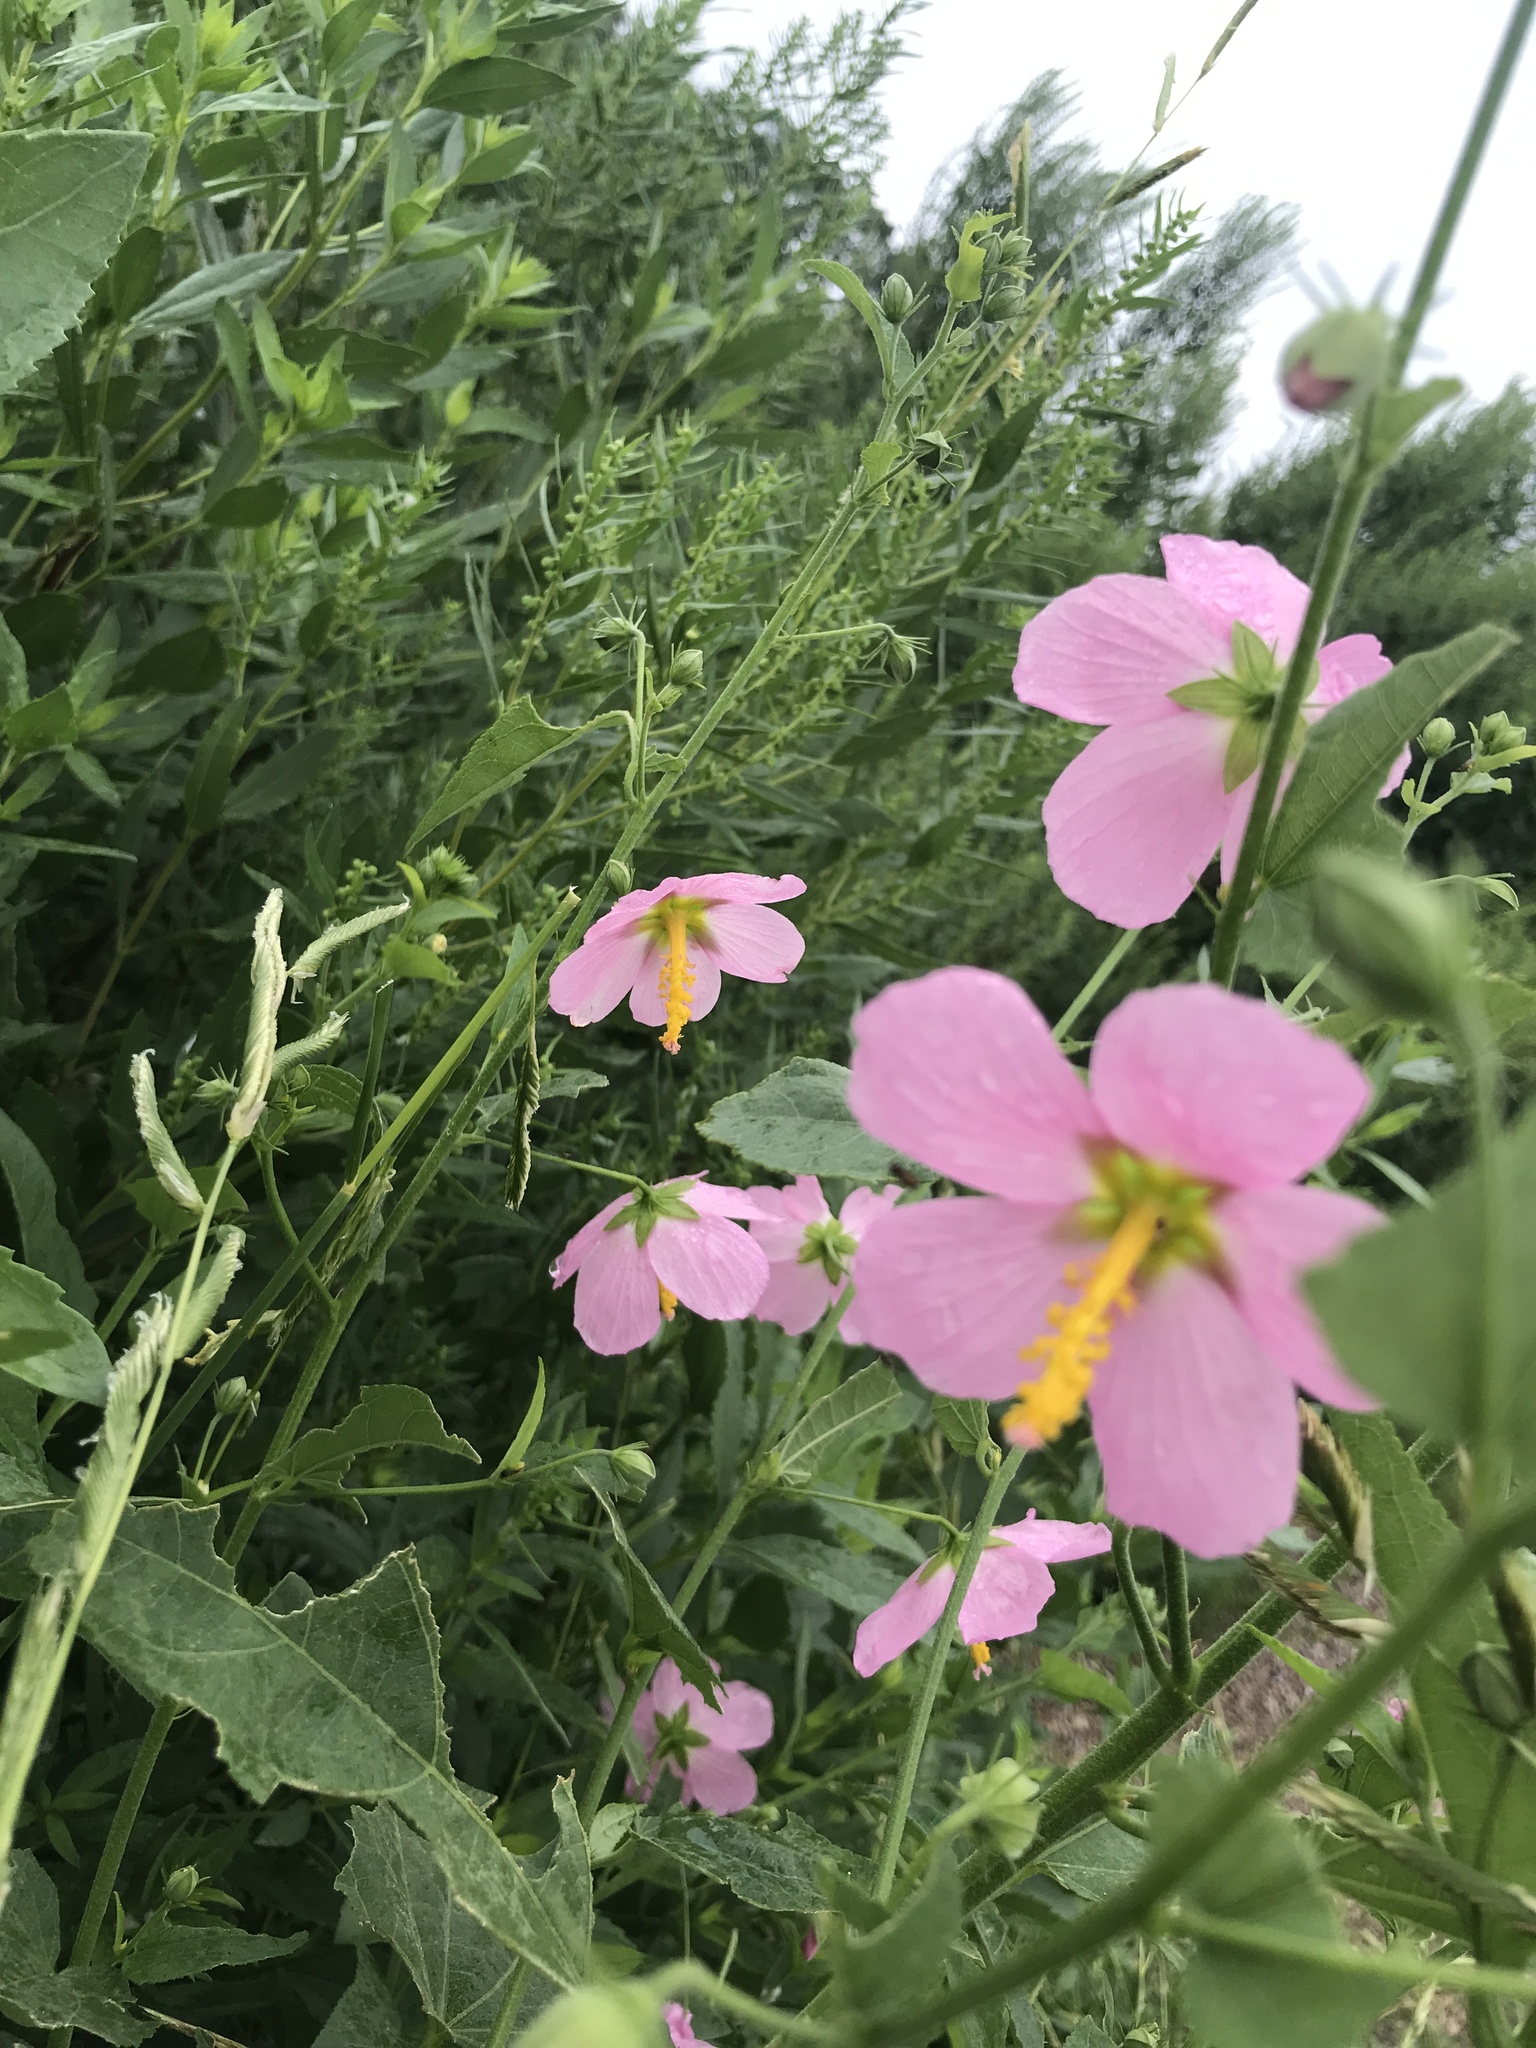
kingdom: Plantae
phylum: Tracheophyta
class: Magnoliopsida
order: Malvales
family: Malvaceae
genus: Kosteletzkya
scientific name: Kosteletzkya pentacarpos
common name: Virginia saltmarsh mallow
